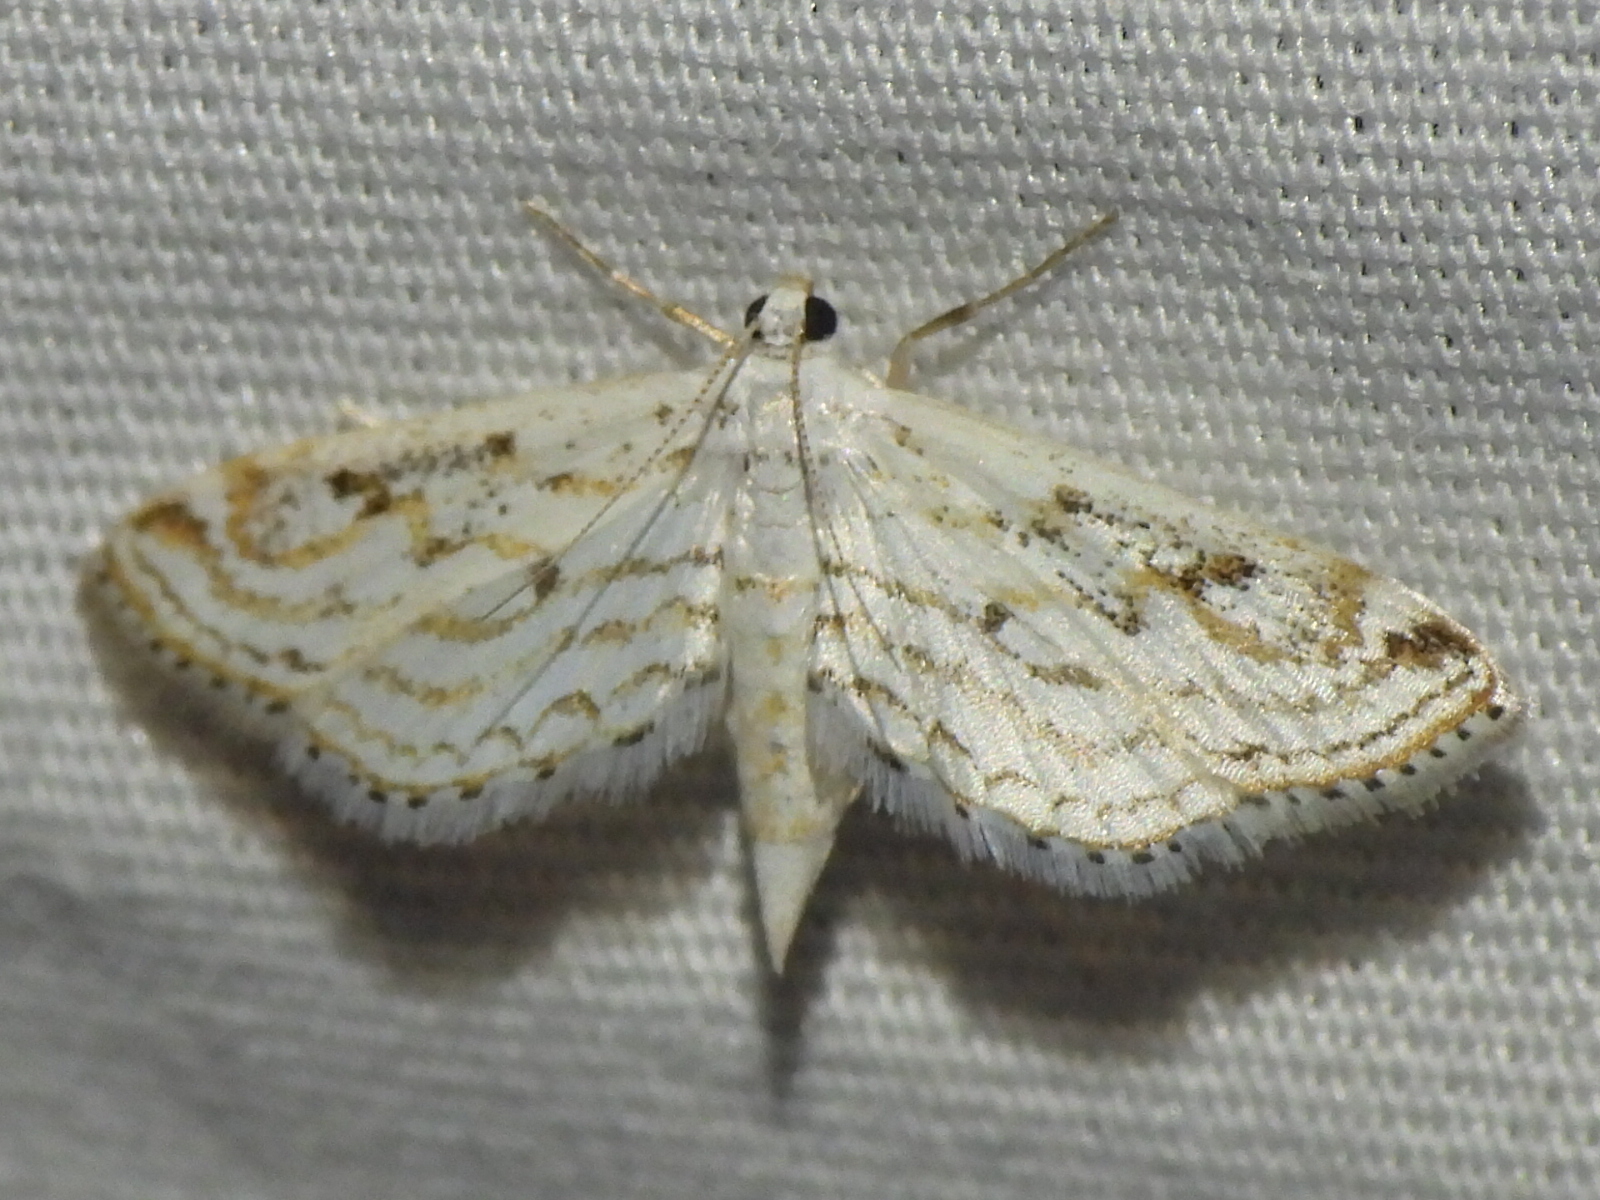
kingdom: Animalia
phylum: Arthropoda
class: Insecta
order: Lepidoptera
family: Crambidae
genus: Parapoynx
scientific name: Parapoynx allionealis
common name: Bladderwort casemaker
